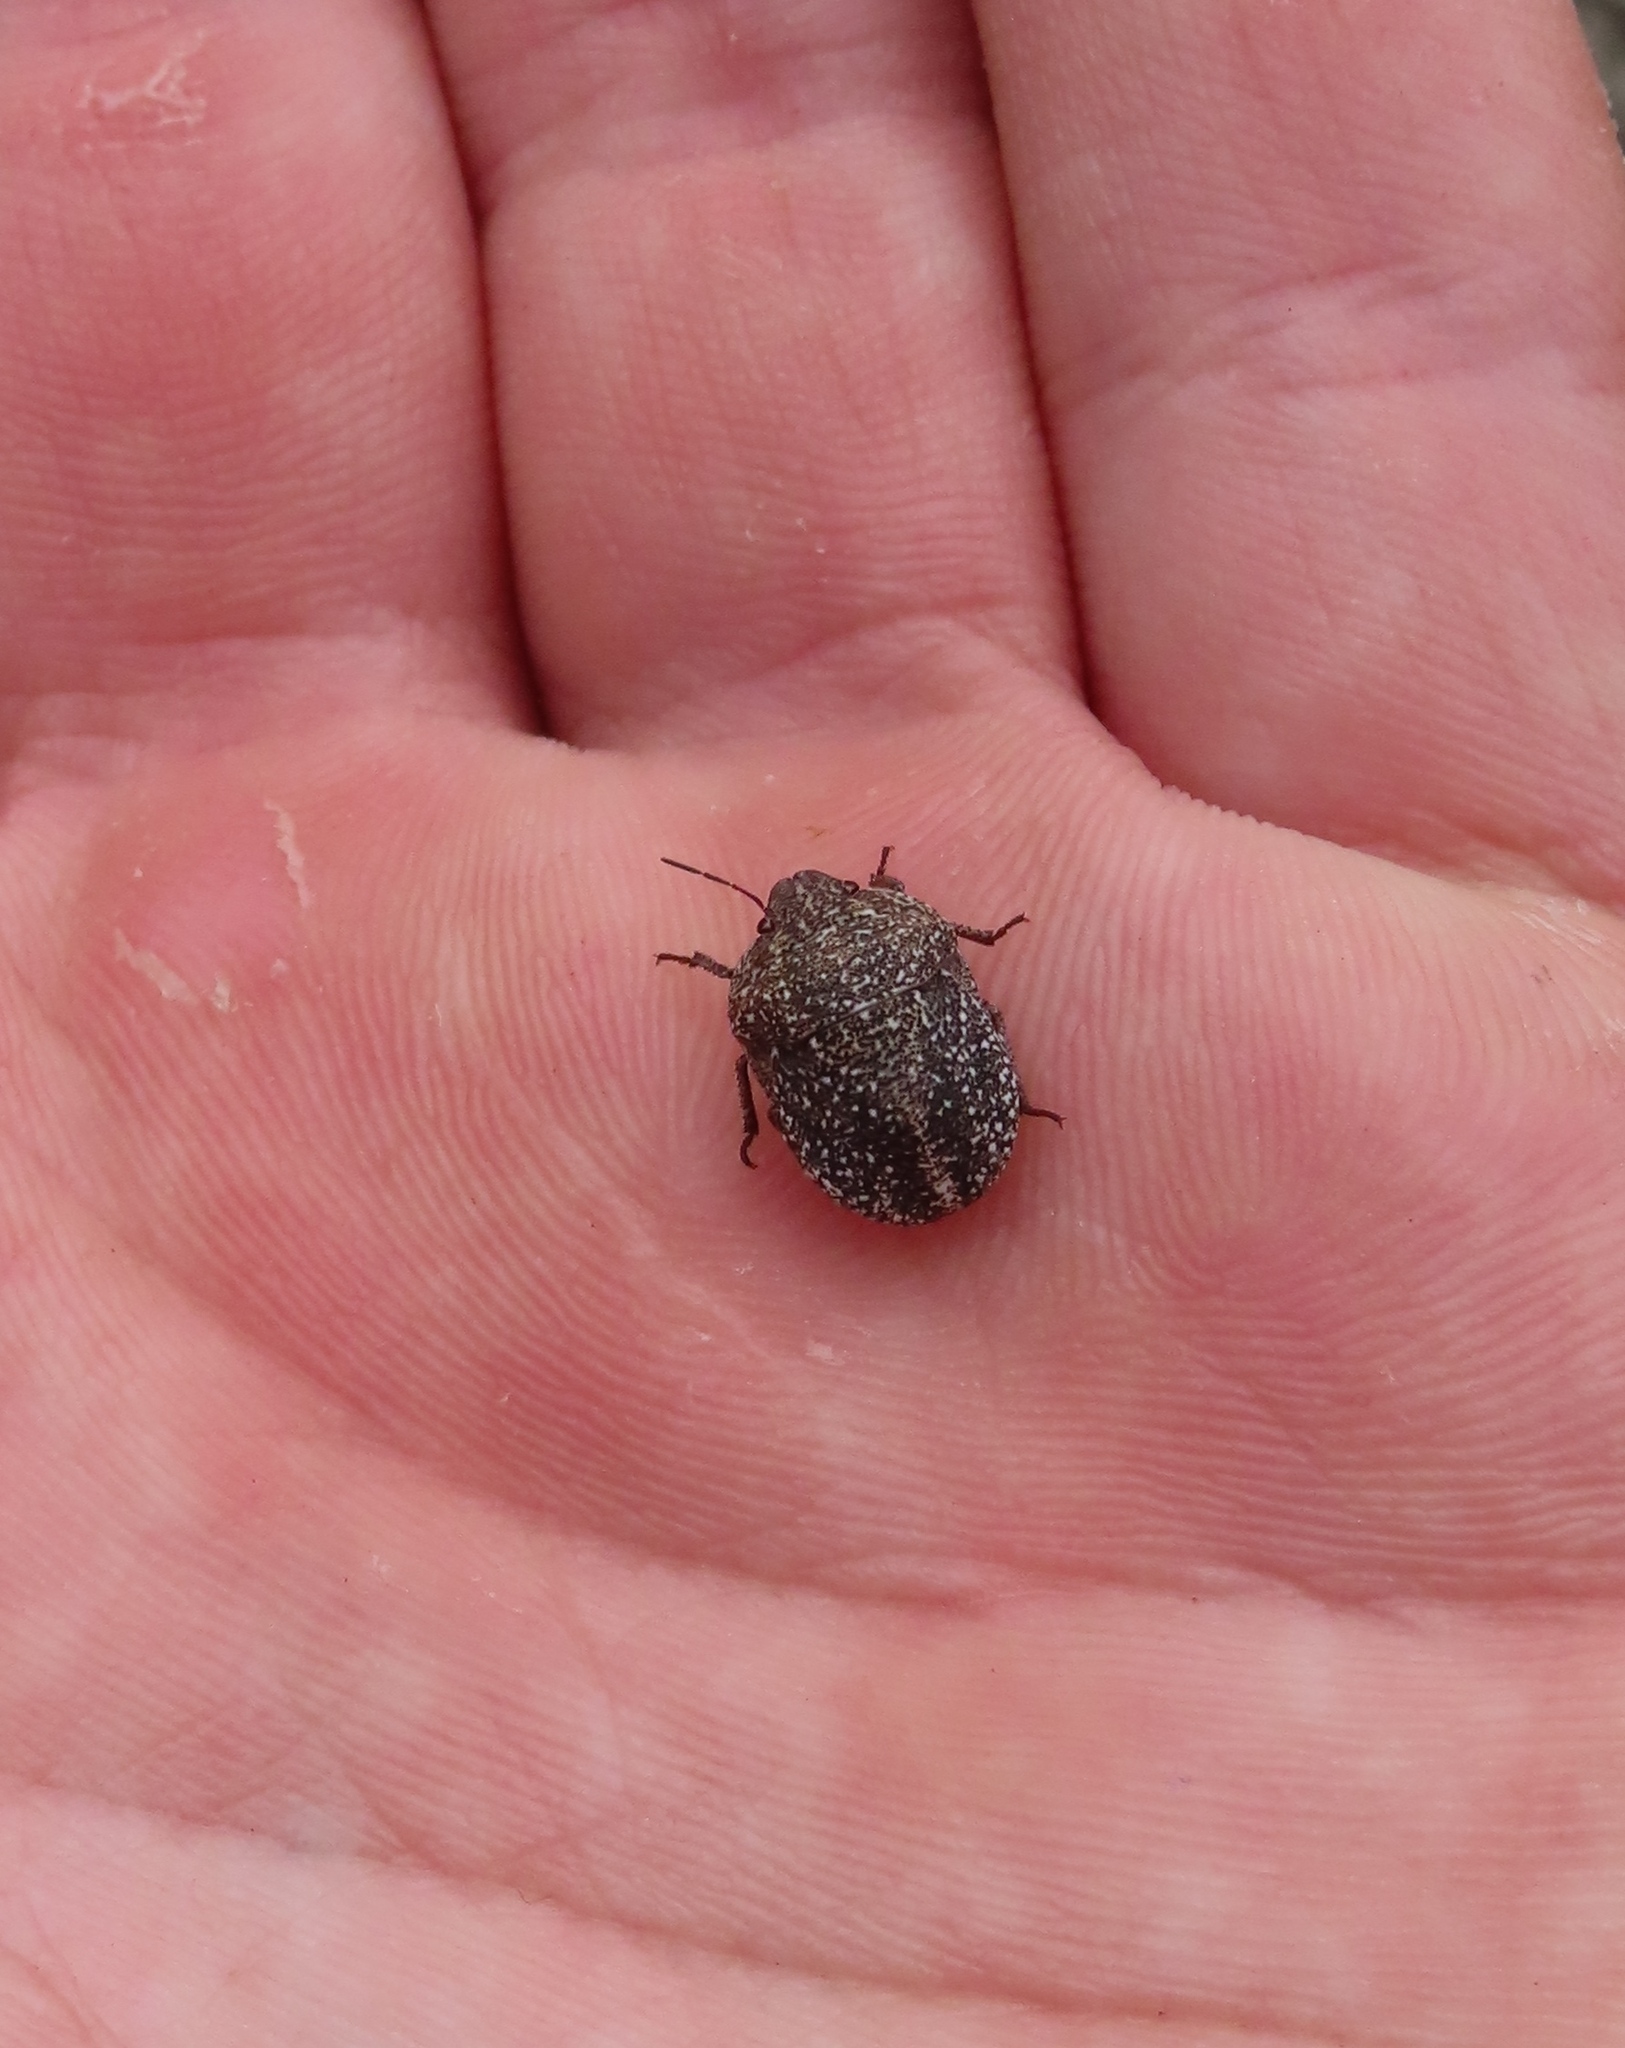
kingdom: Animalia
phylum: Arthropoda
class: Insecta
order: Hemiptera
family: Scutelleridae
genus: Psacasta
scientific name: Psacasta exanthematica
